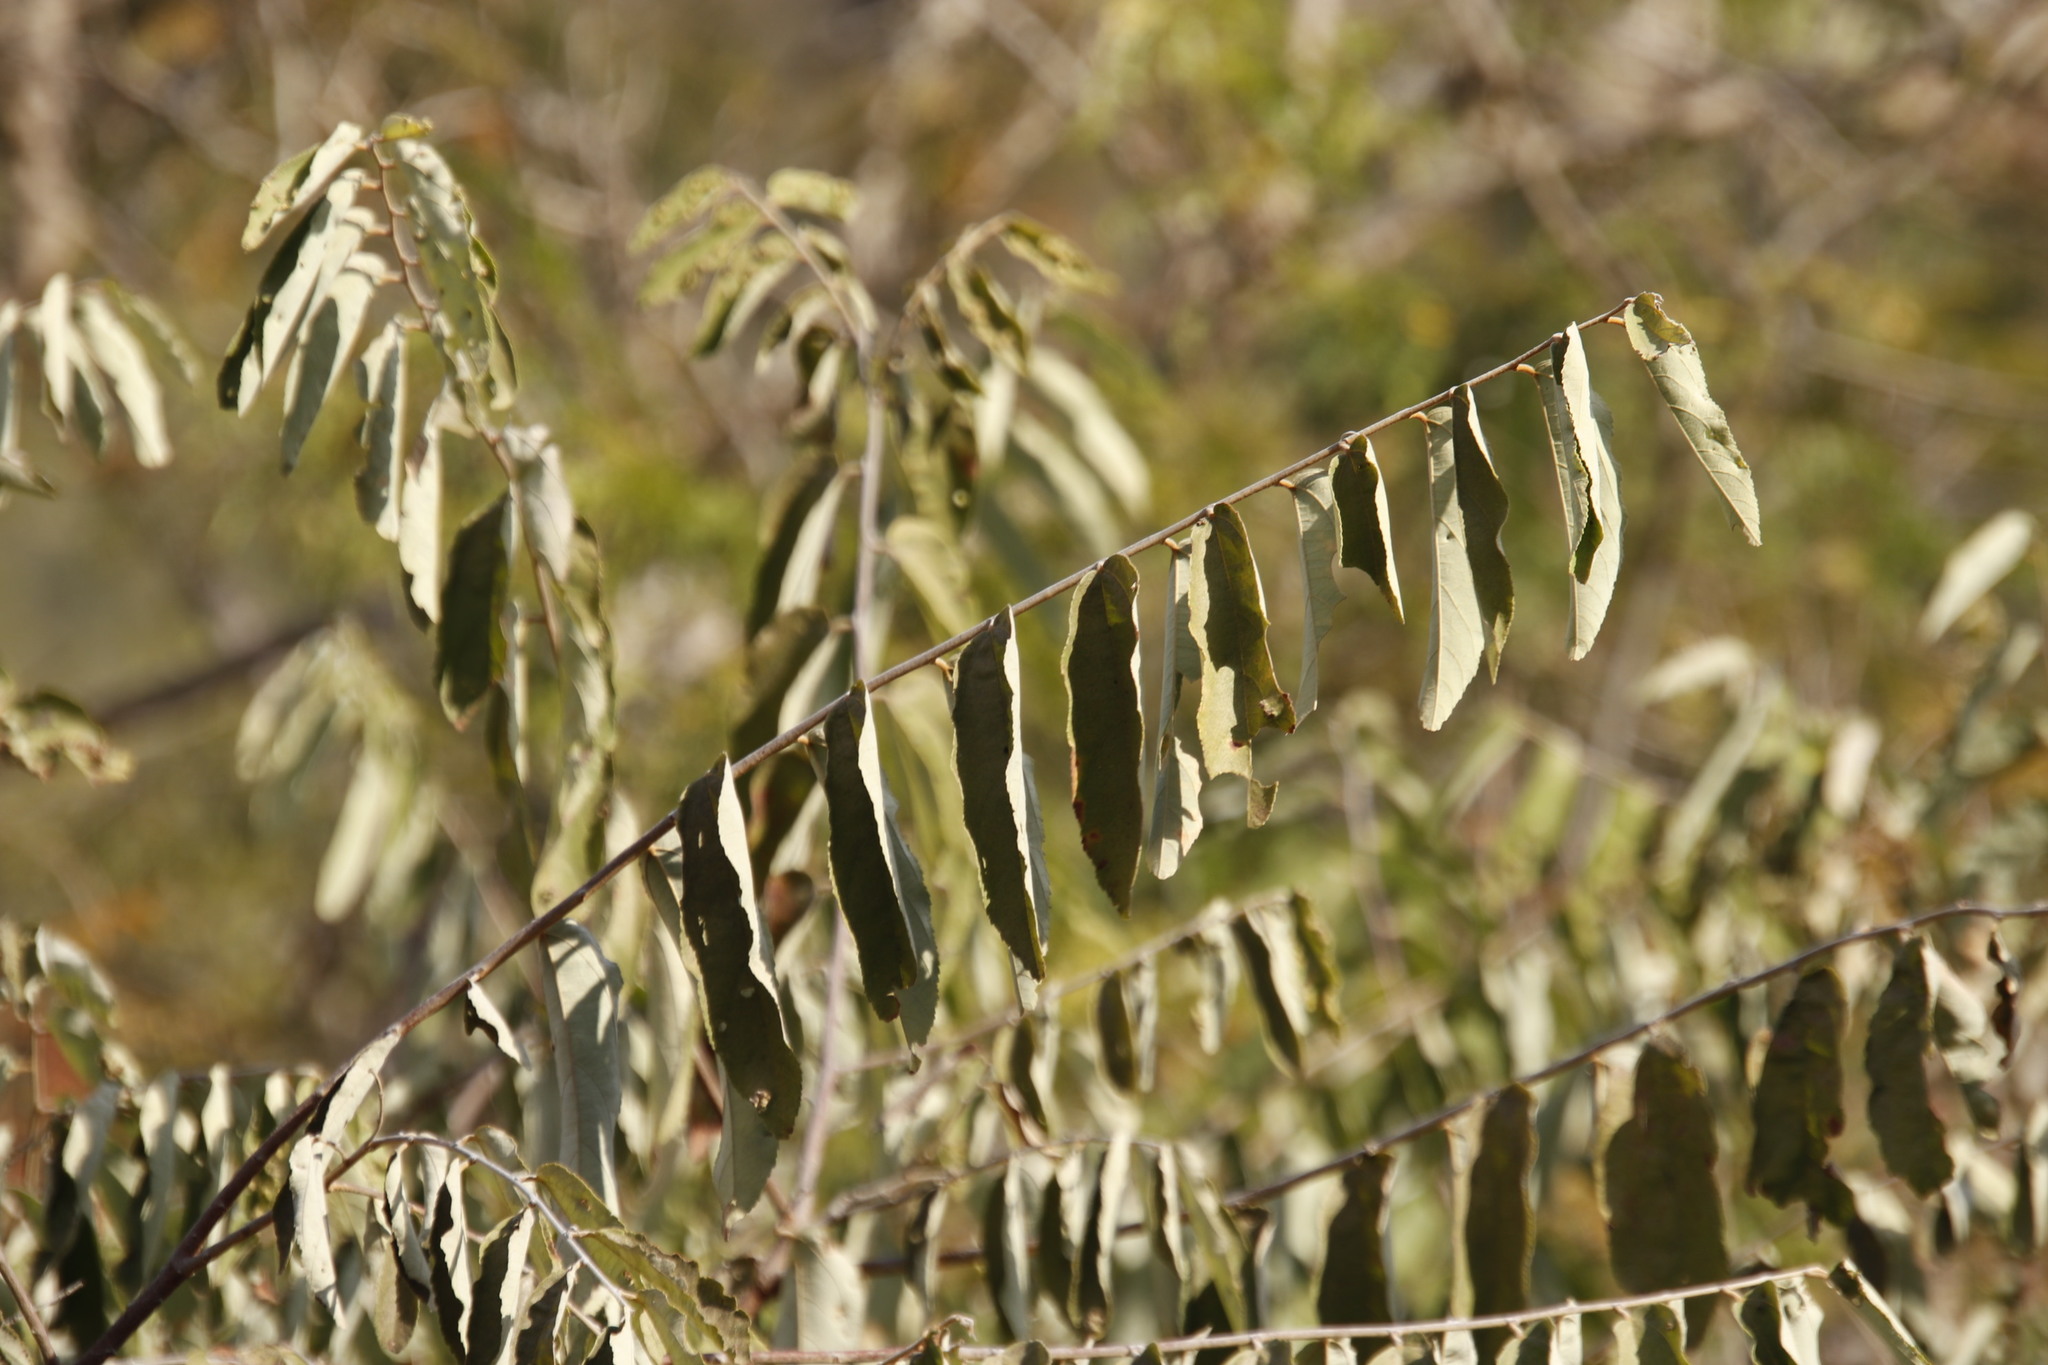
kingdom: Plantae
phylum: Tracheophyta
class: Magnoliopsida
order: Malvales
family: Malvaceae
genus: Grewia
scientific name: Grewia bicolor
